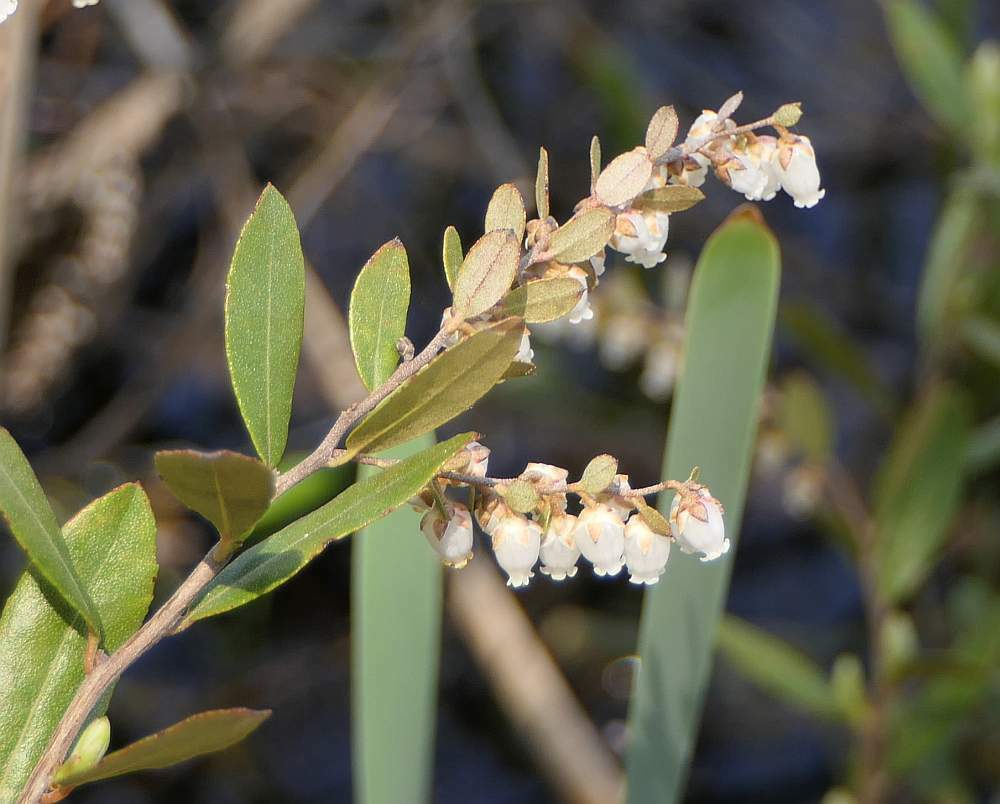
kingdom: Plantae
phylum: Tracheophyta
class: Magnoliopsida
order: Ericales
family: Ericaceae
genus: Chamaedaphne
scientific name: Chamaedaphne calyculata
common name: Leatherleaf
